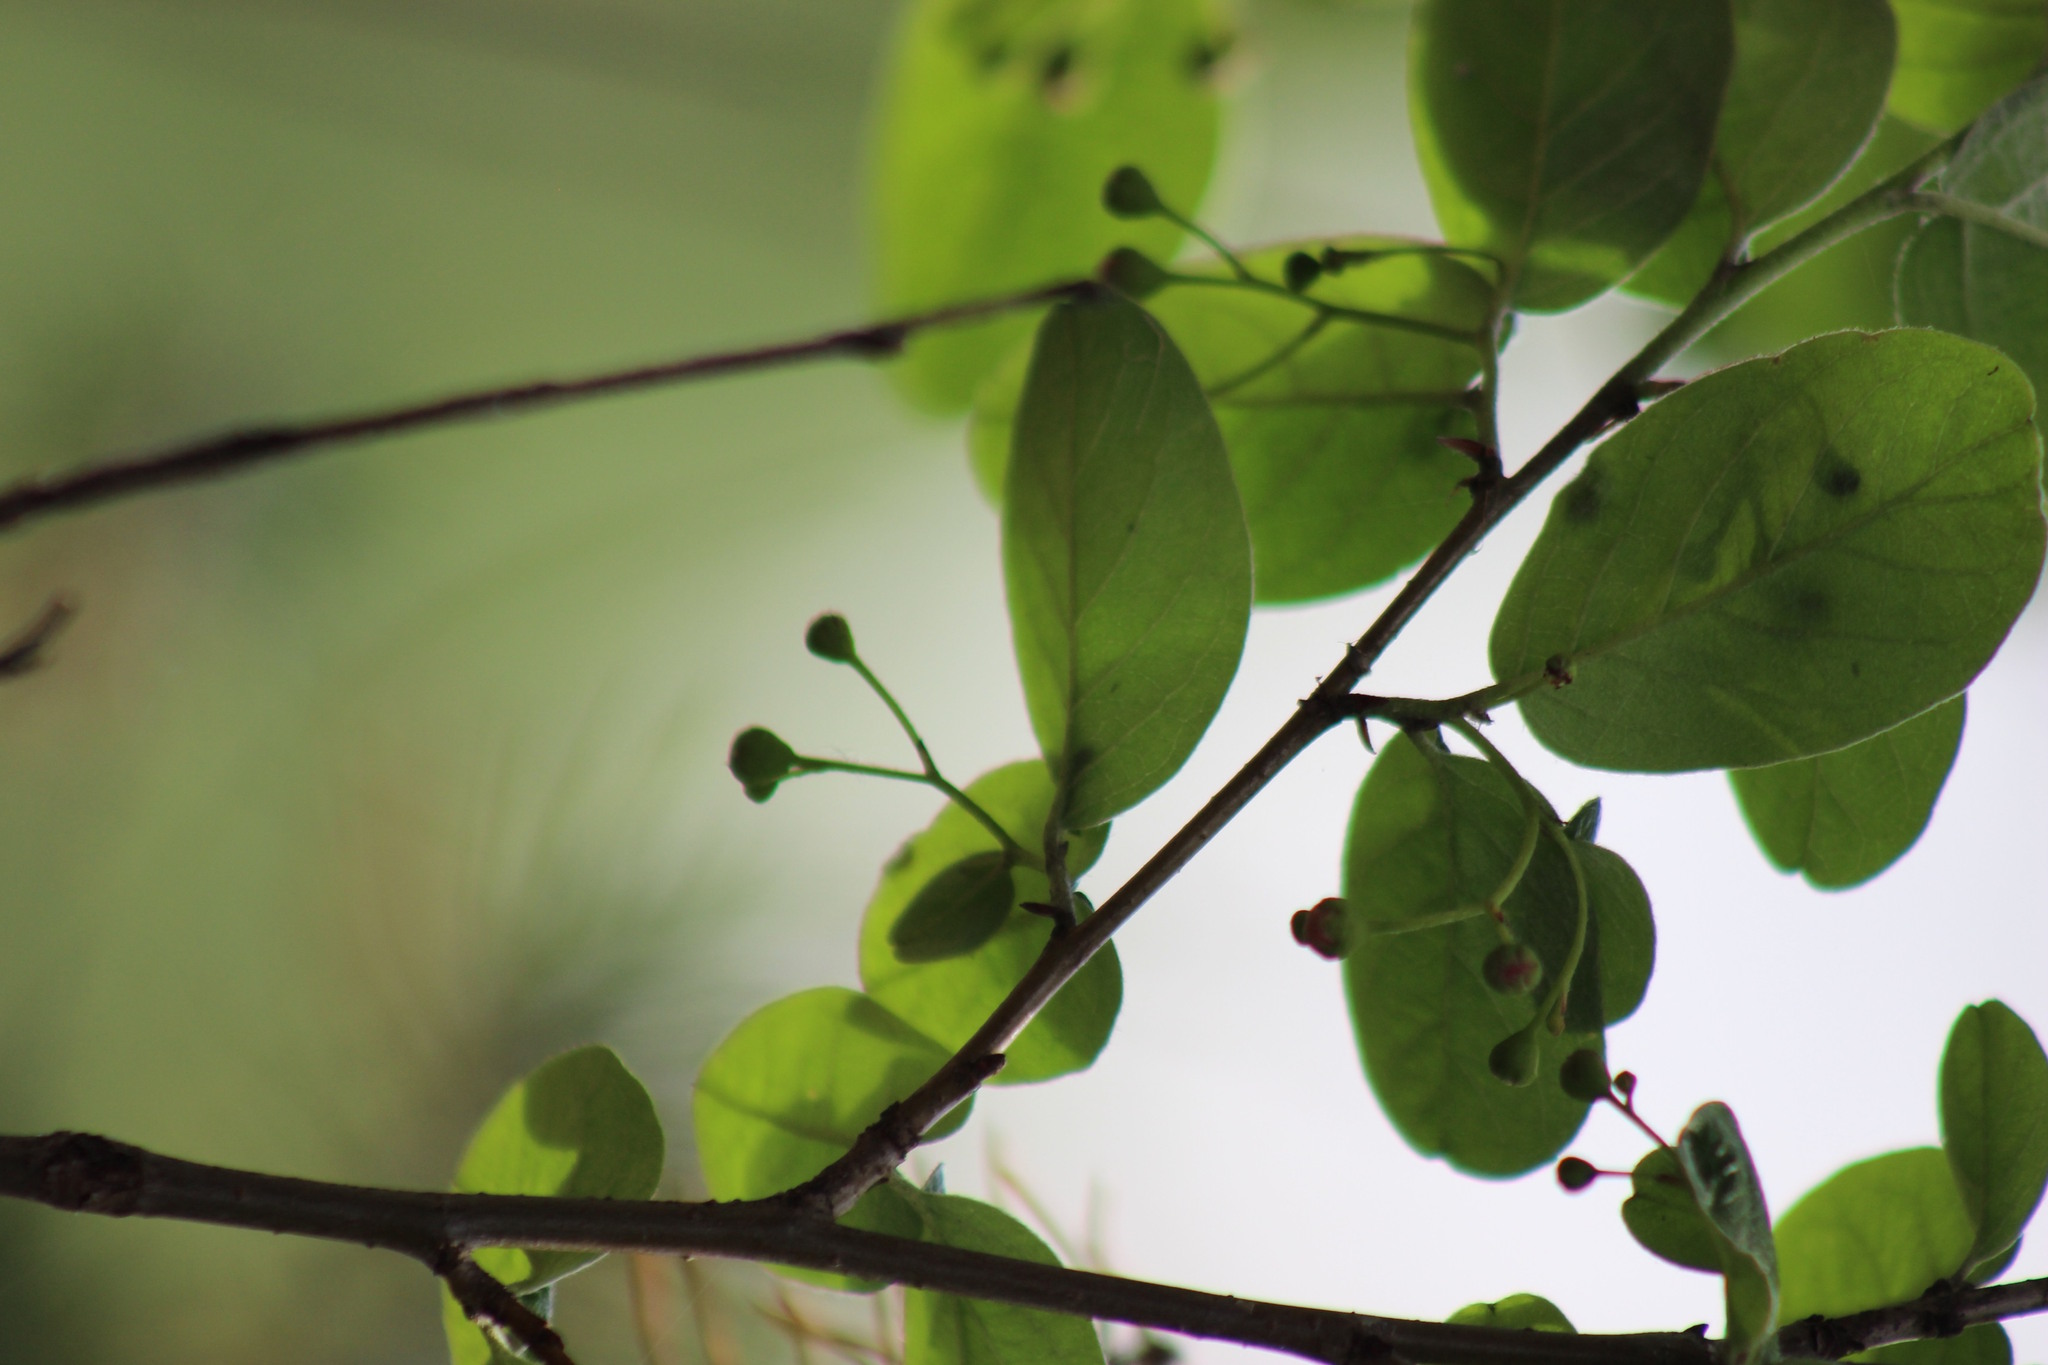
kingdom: Plantae
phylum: Tracheophyta
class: Magnoliopsida
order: Rosales
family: Rosaceae
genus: Cotoneaster
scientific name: Cotoneaster melanocarpus
